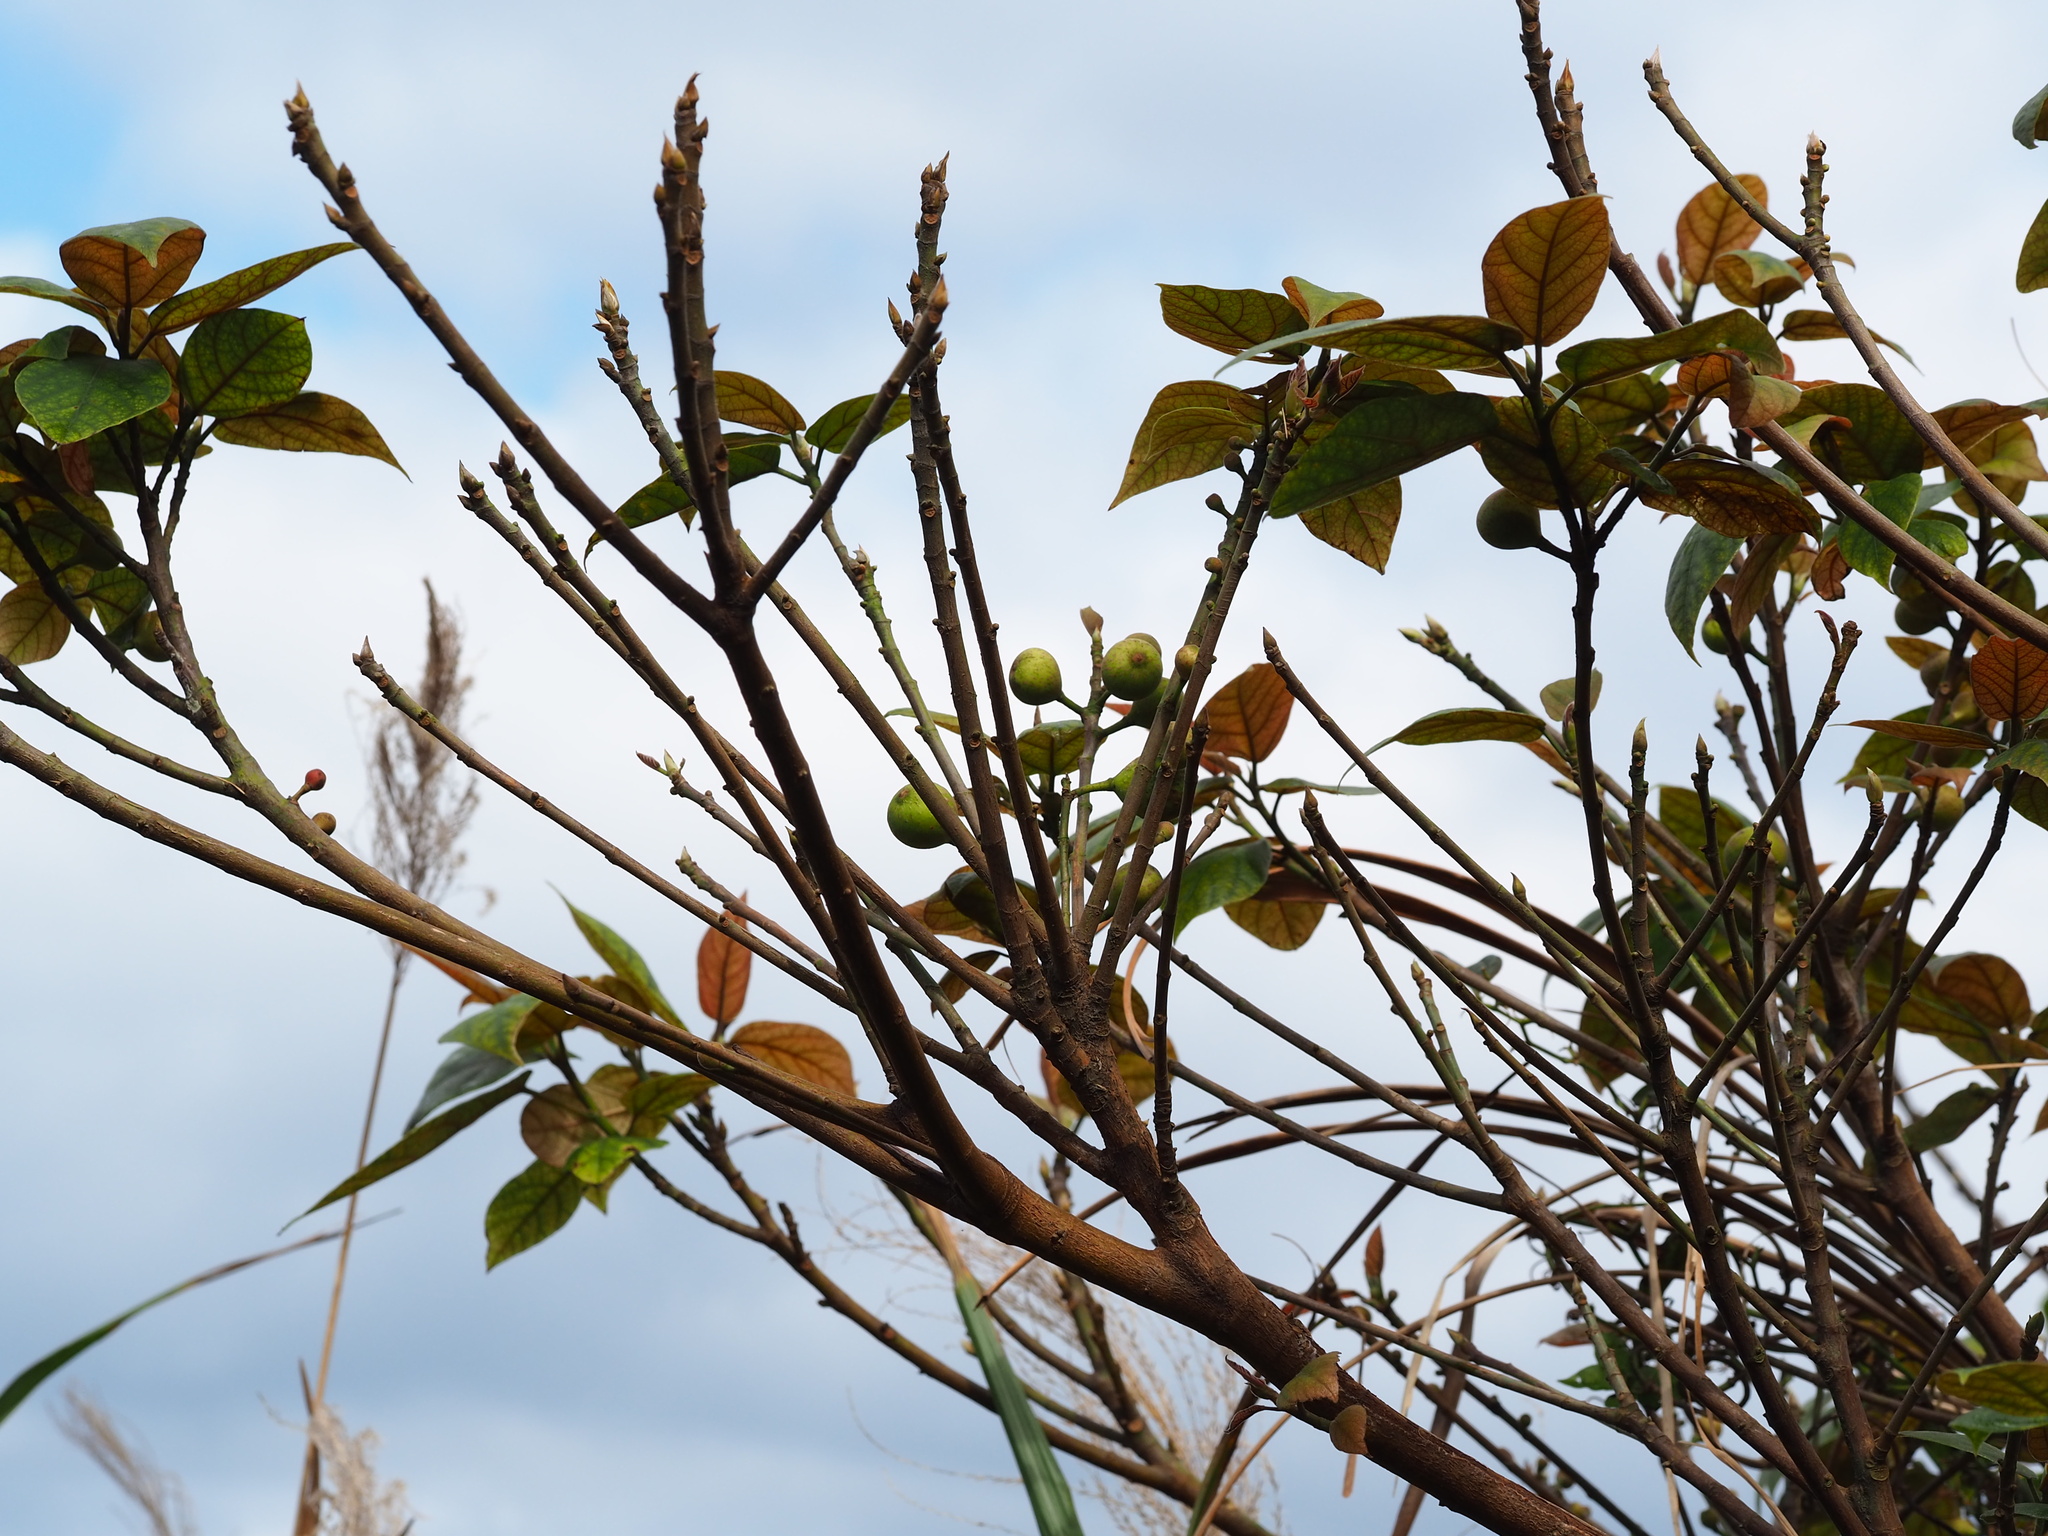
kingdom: Plantae
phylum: Tracheophyta
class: Magnoliopsida
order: Rosales
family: Moraceae
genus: Ficus
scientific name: Ficus erecta
